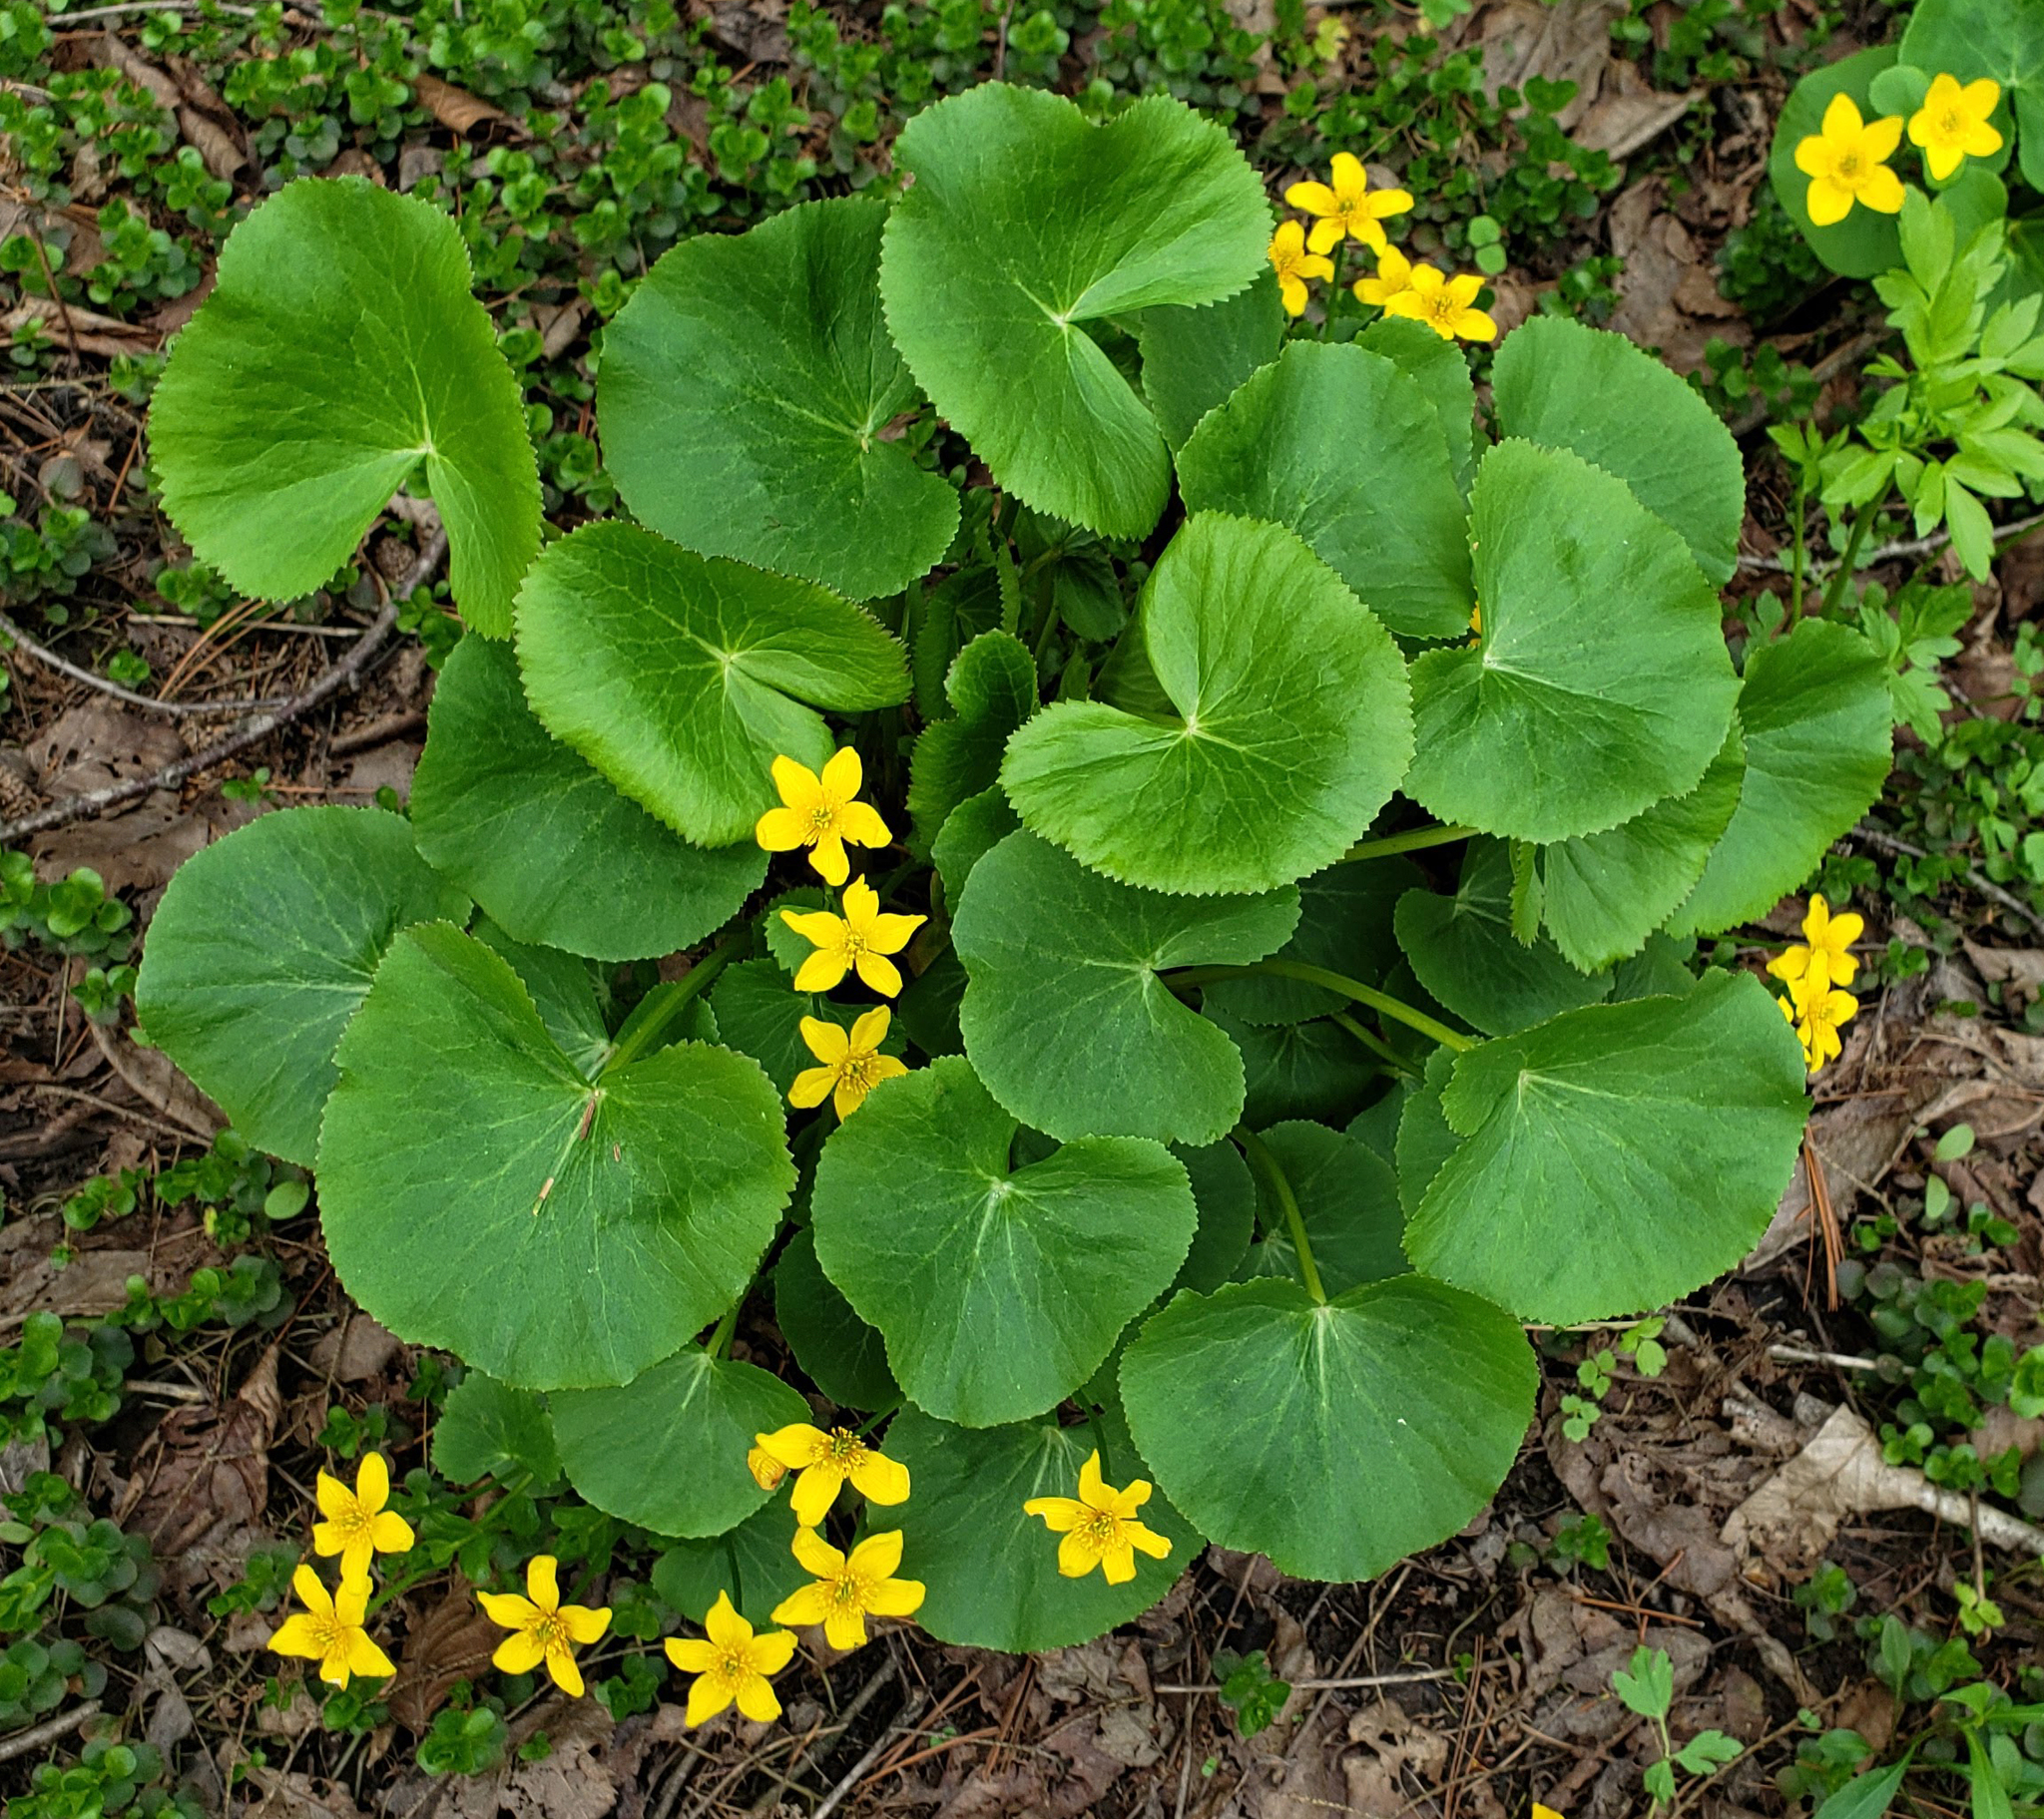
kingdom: Plantae
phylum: Tracheophyta
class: Magnoliopsida
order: Ranunculales
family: Ranunculaceae
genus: Caltha
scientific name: Caltha palustris
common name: Marsh marigold
